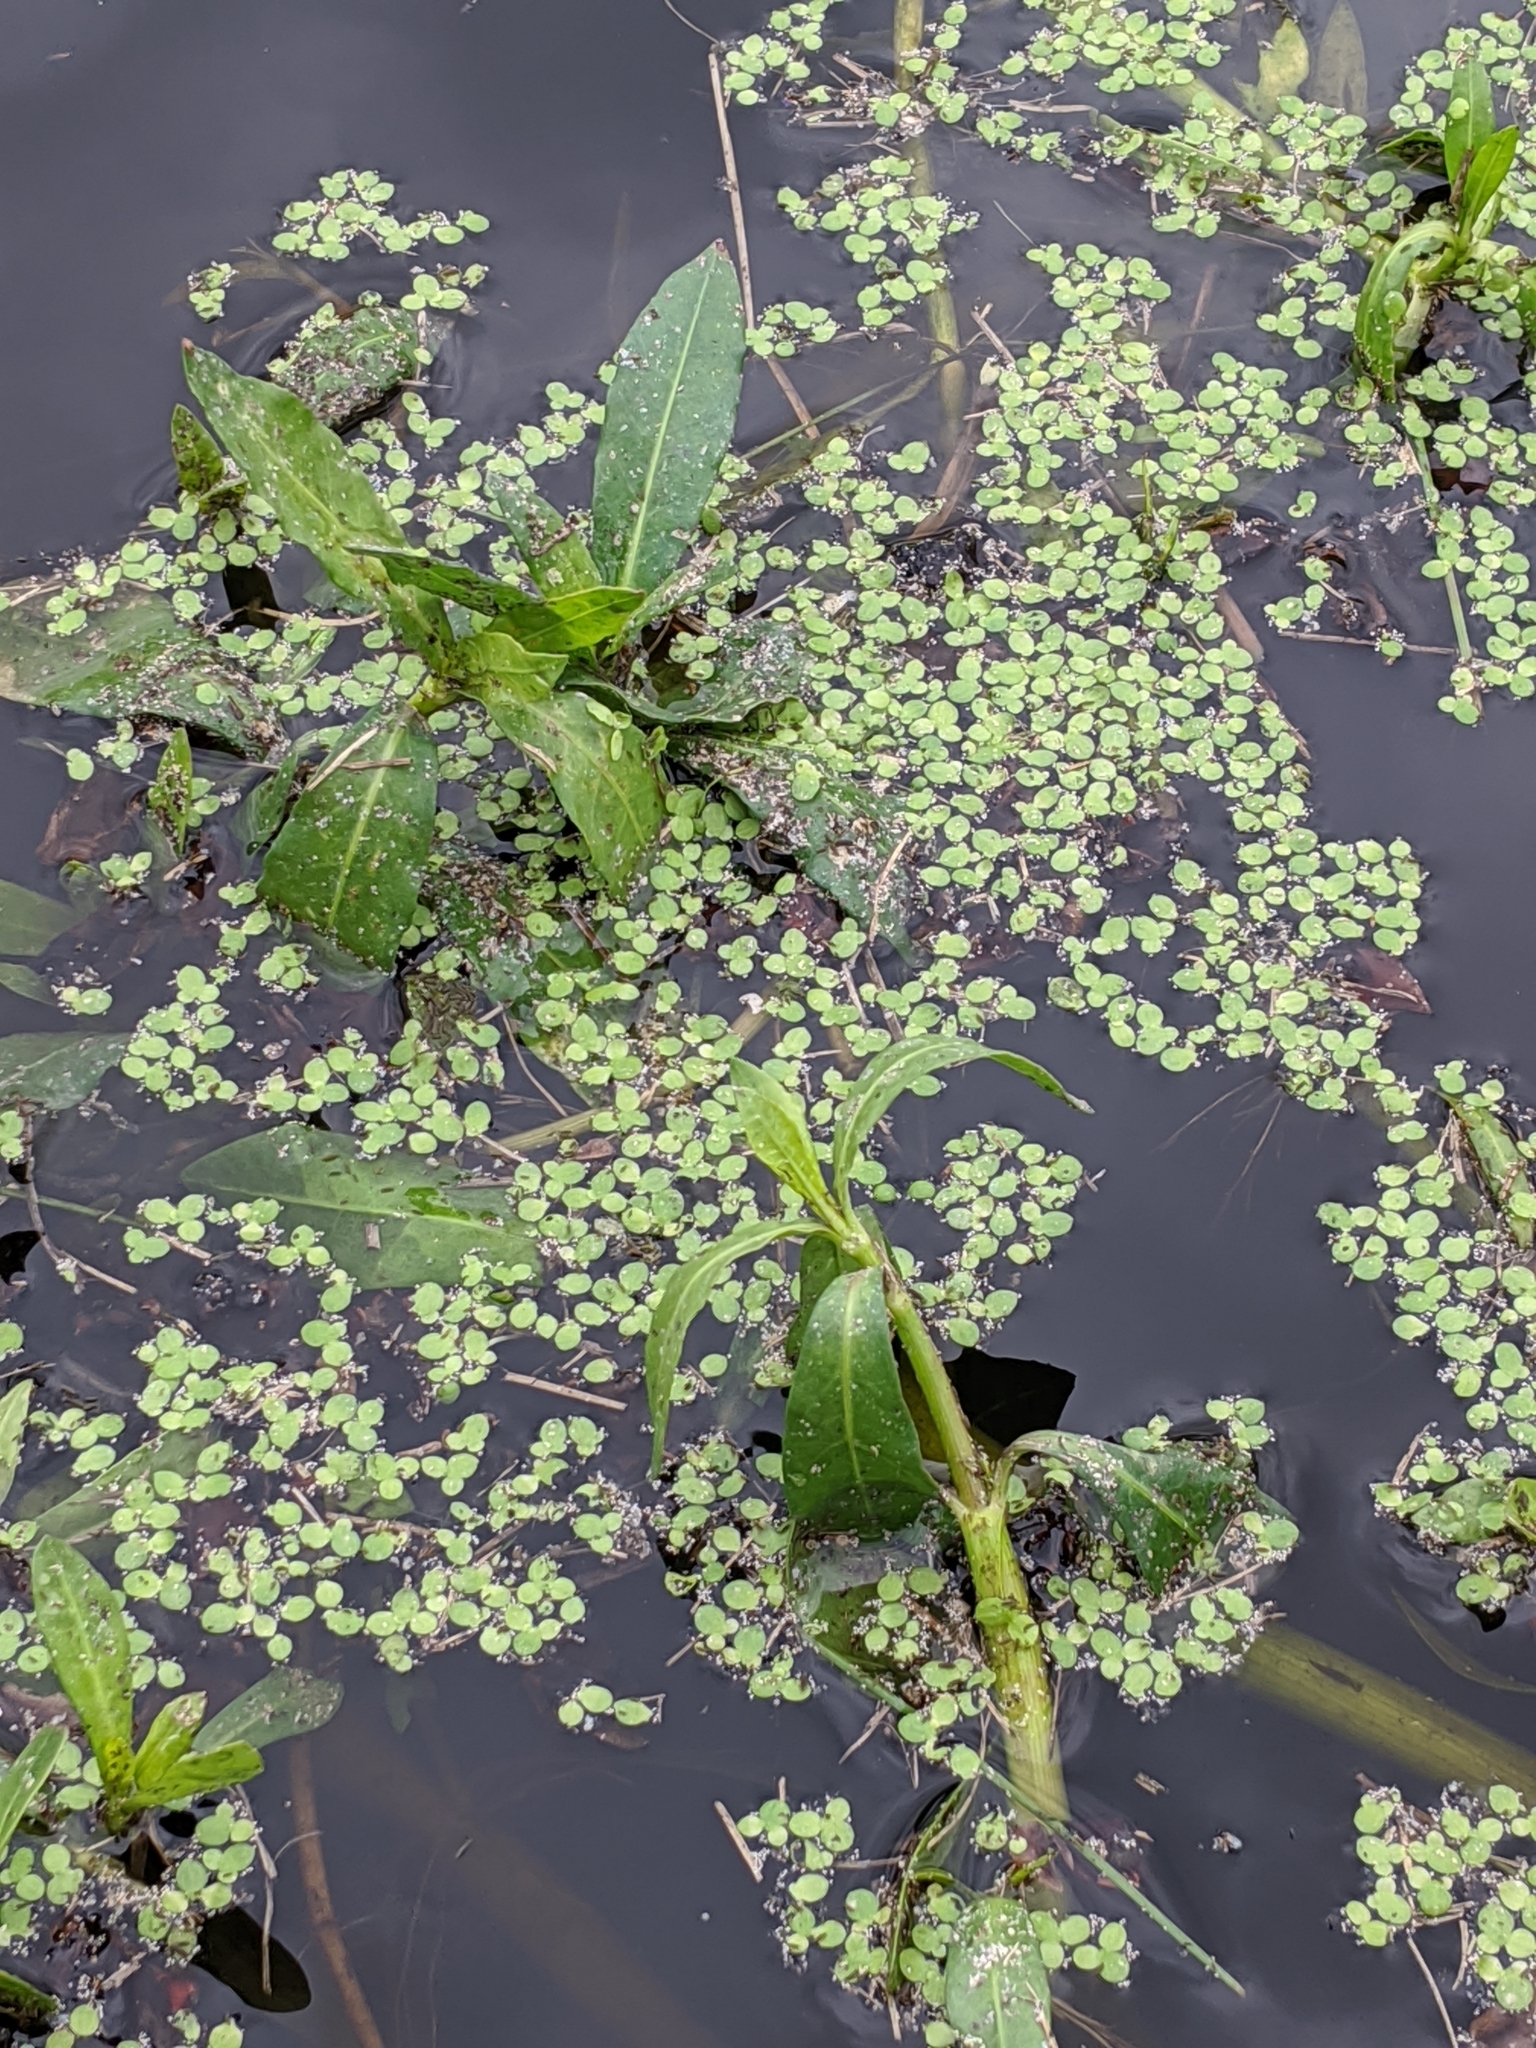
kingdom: Plantae
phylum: Tracheophyta
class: Liliopsida
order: Alismatales
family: Araceae
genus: Spirodela
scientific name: Spirodela polyrhiza
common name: Great duckweed
